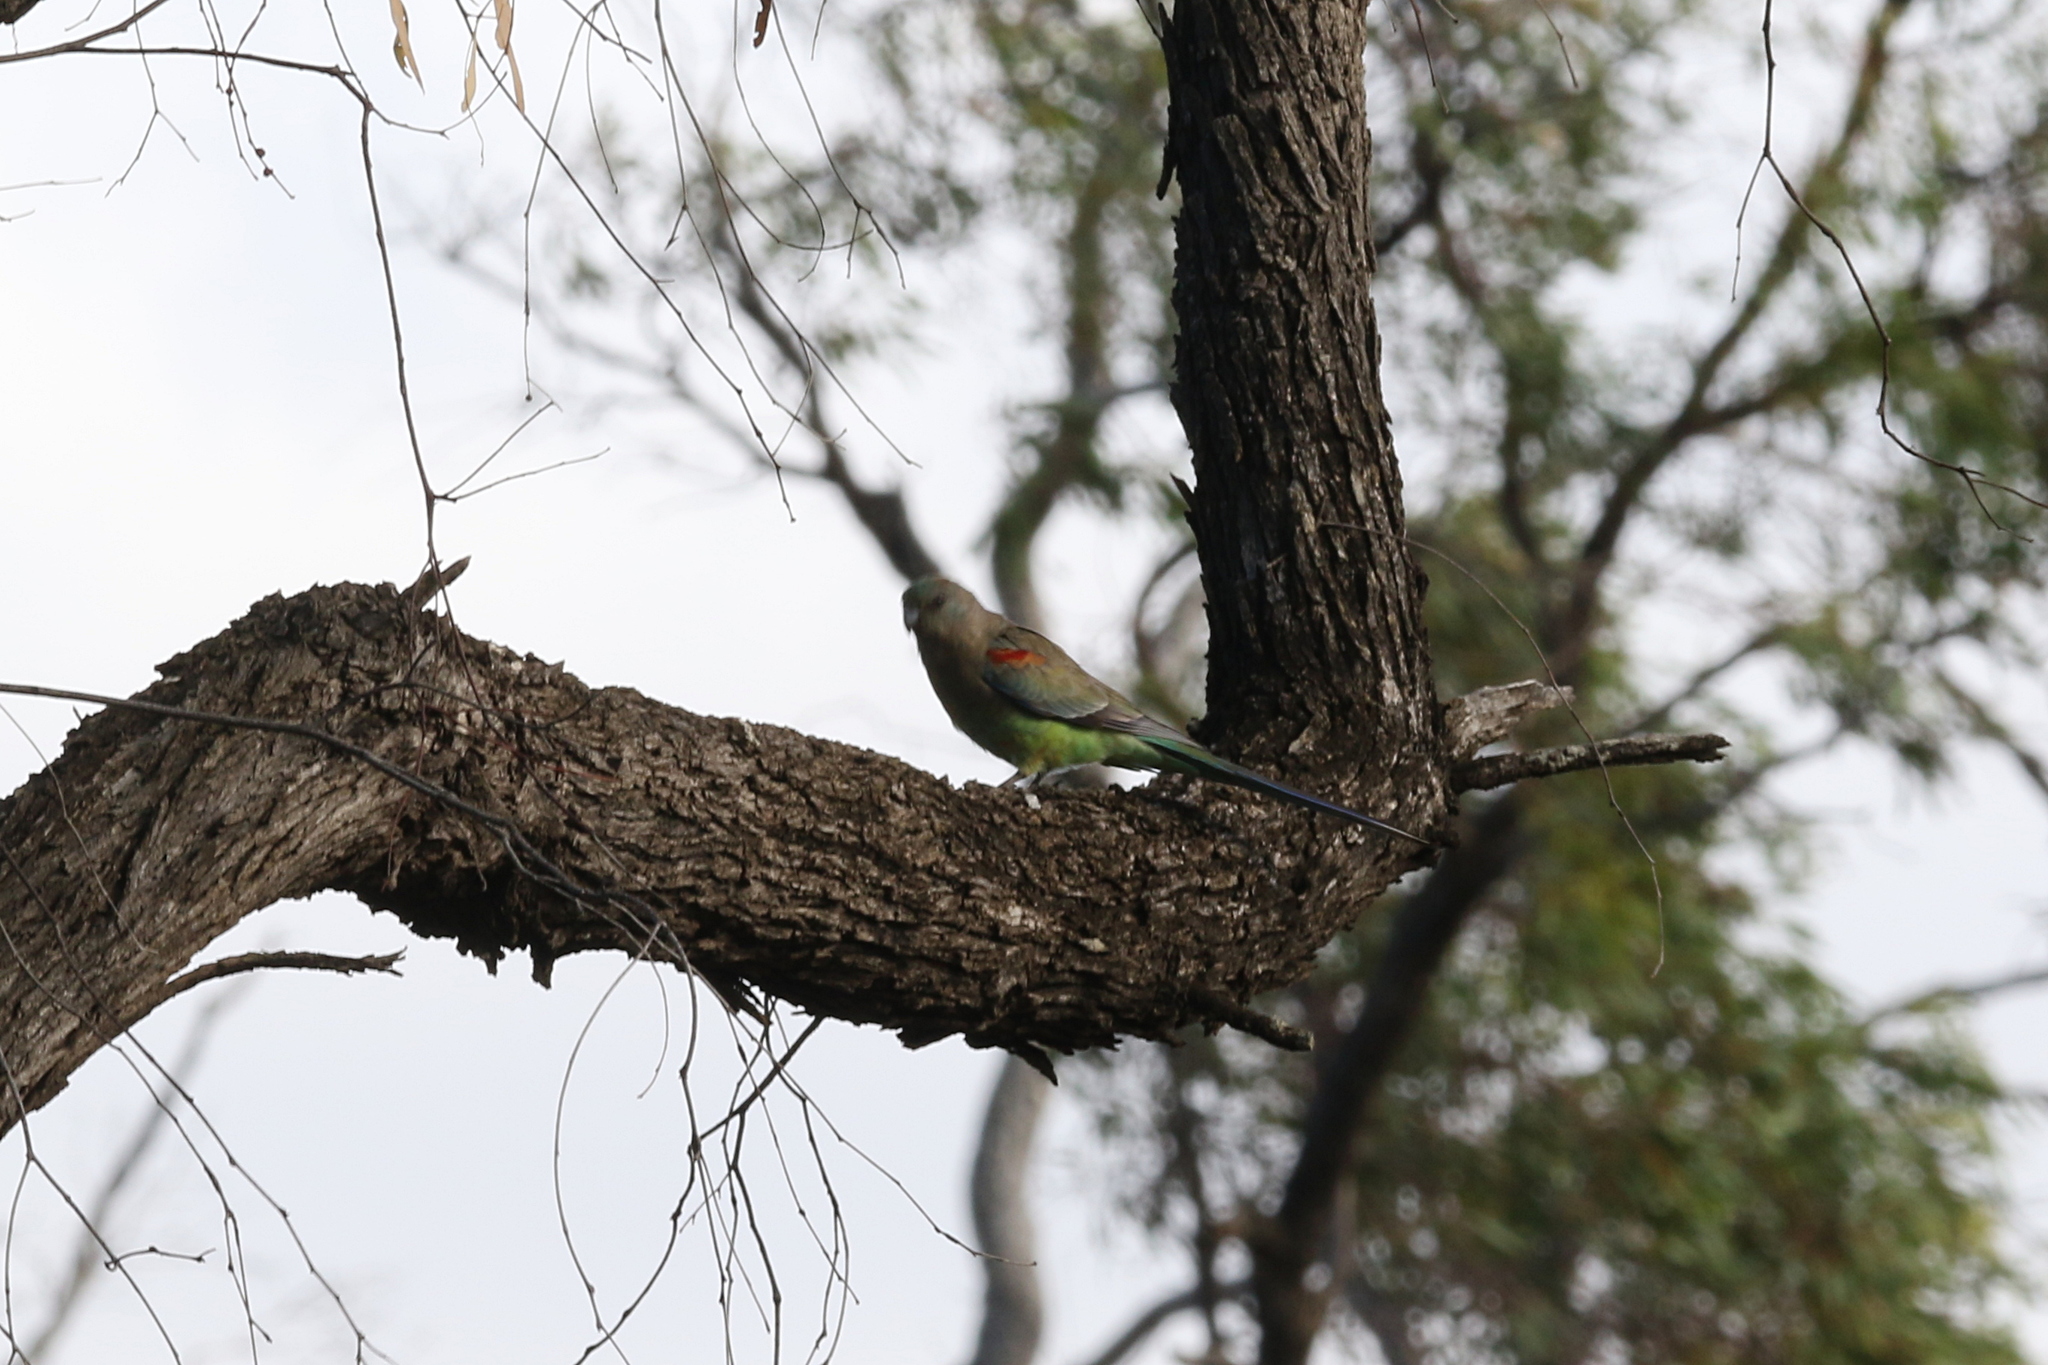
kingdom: Animalia
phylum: Chordata
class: Aves
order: Psittaciformes
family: Psittaculidae
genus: Psephotellus
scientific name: Psephotellus varius
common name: Mulga parrot
